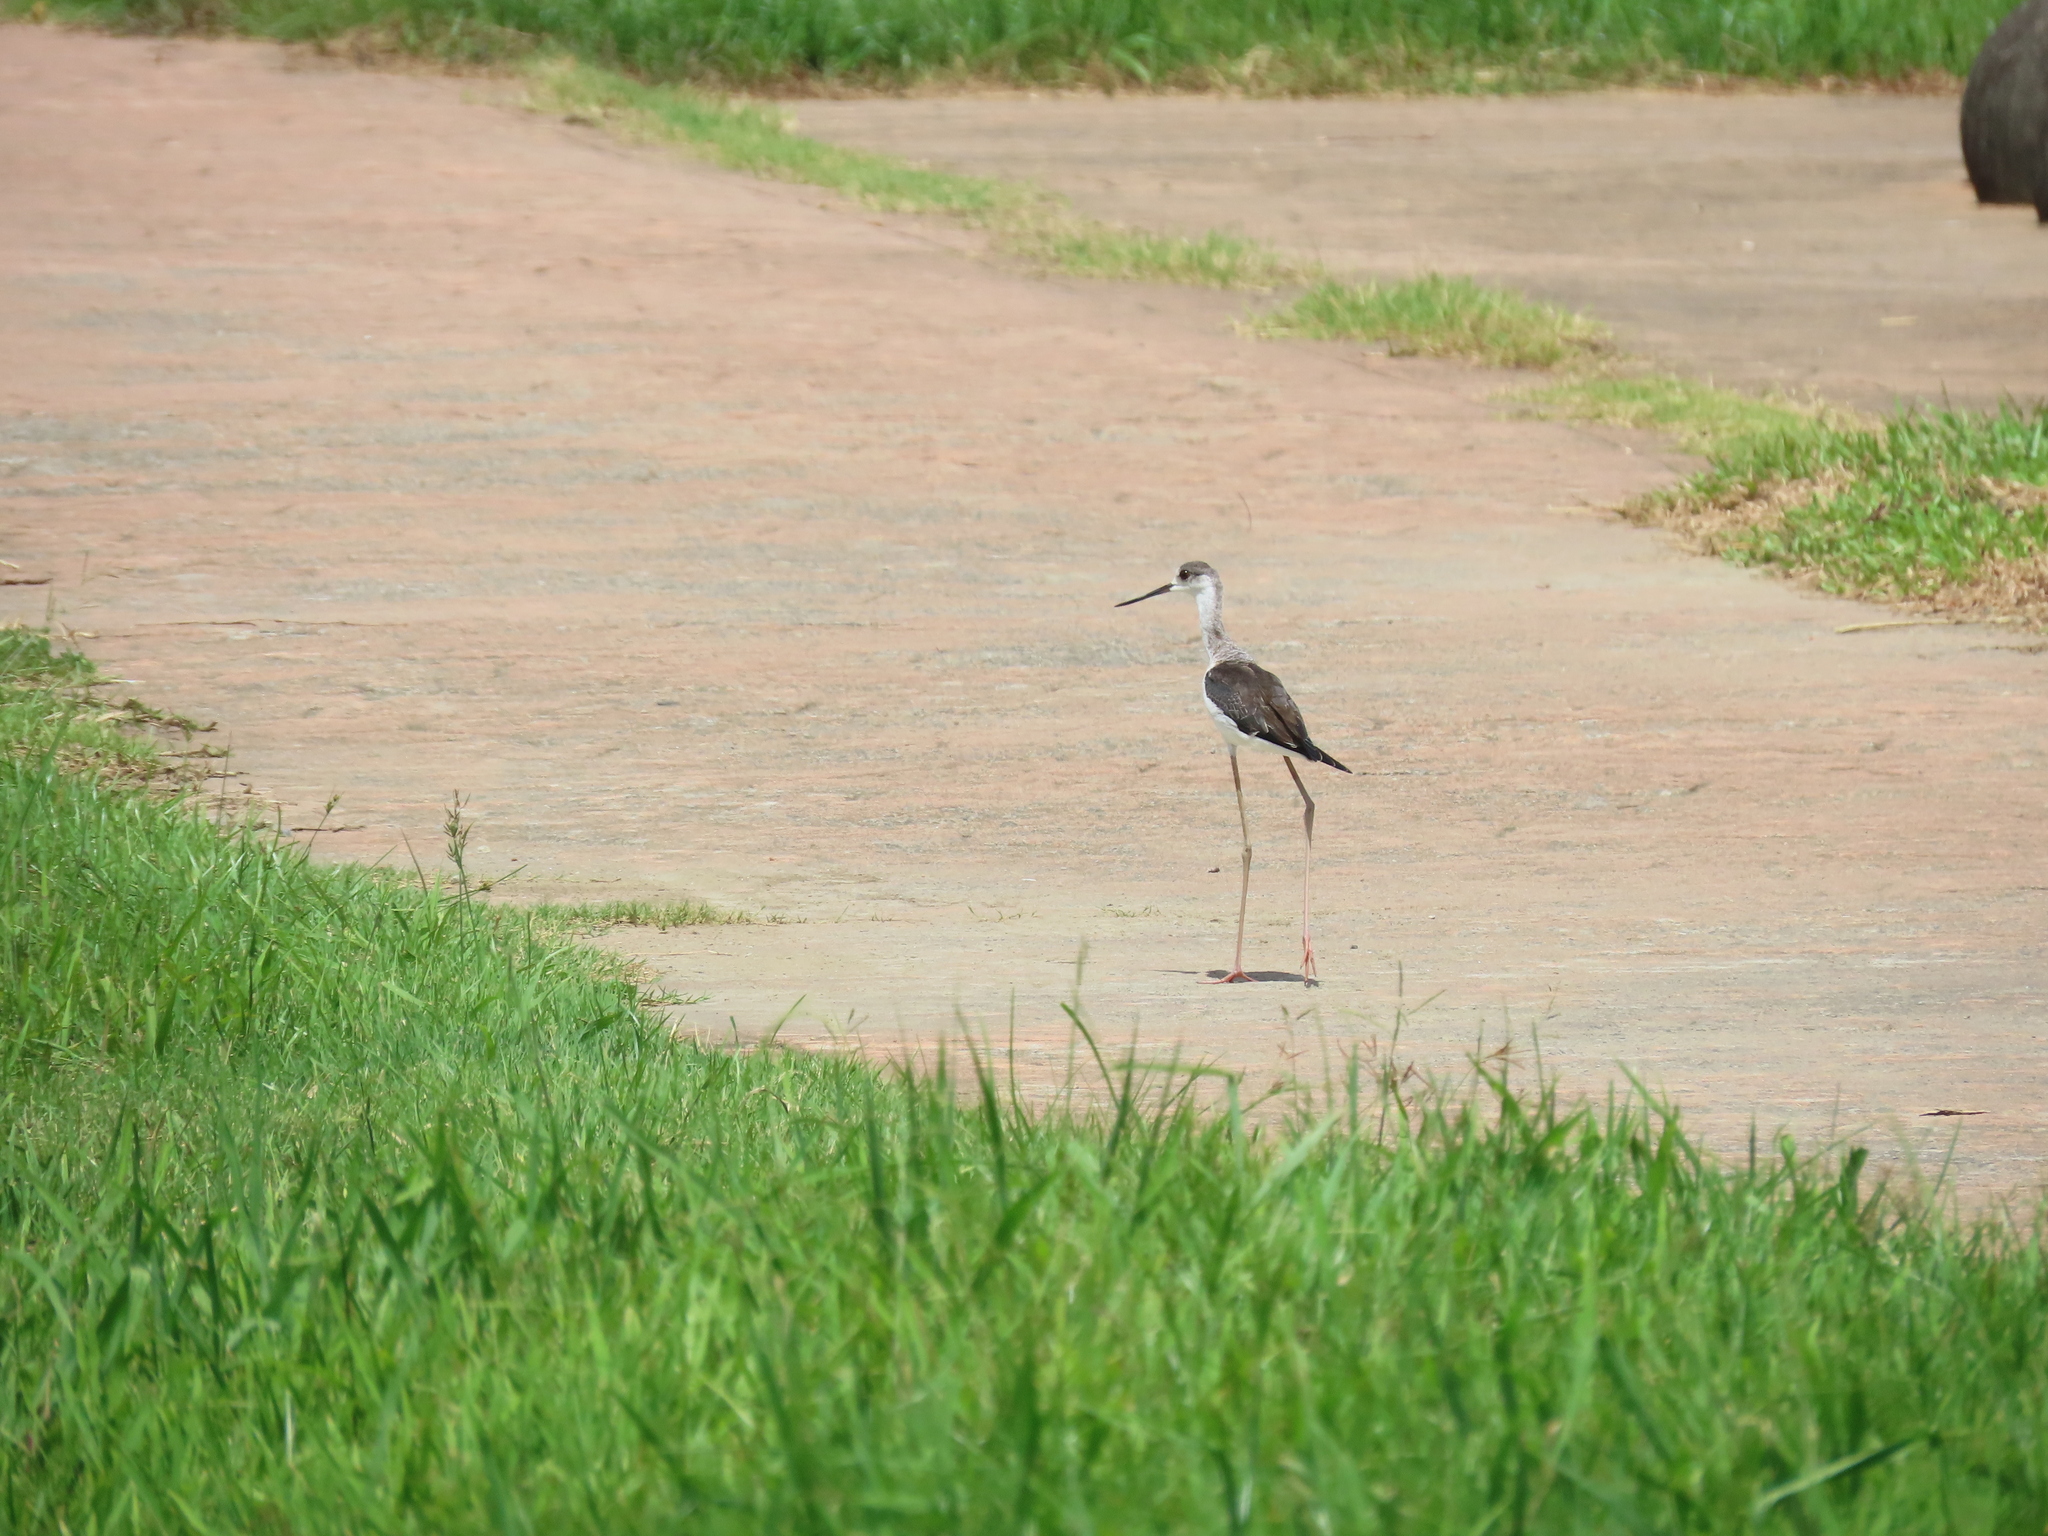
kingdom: Animalia
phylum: Chordata
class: Aves
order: Charadriiformes
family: Recurvirostridae
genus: Himantopus
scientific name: Himantopus himantopus
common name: Black-winged stilt
